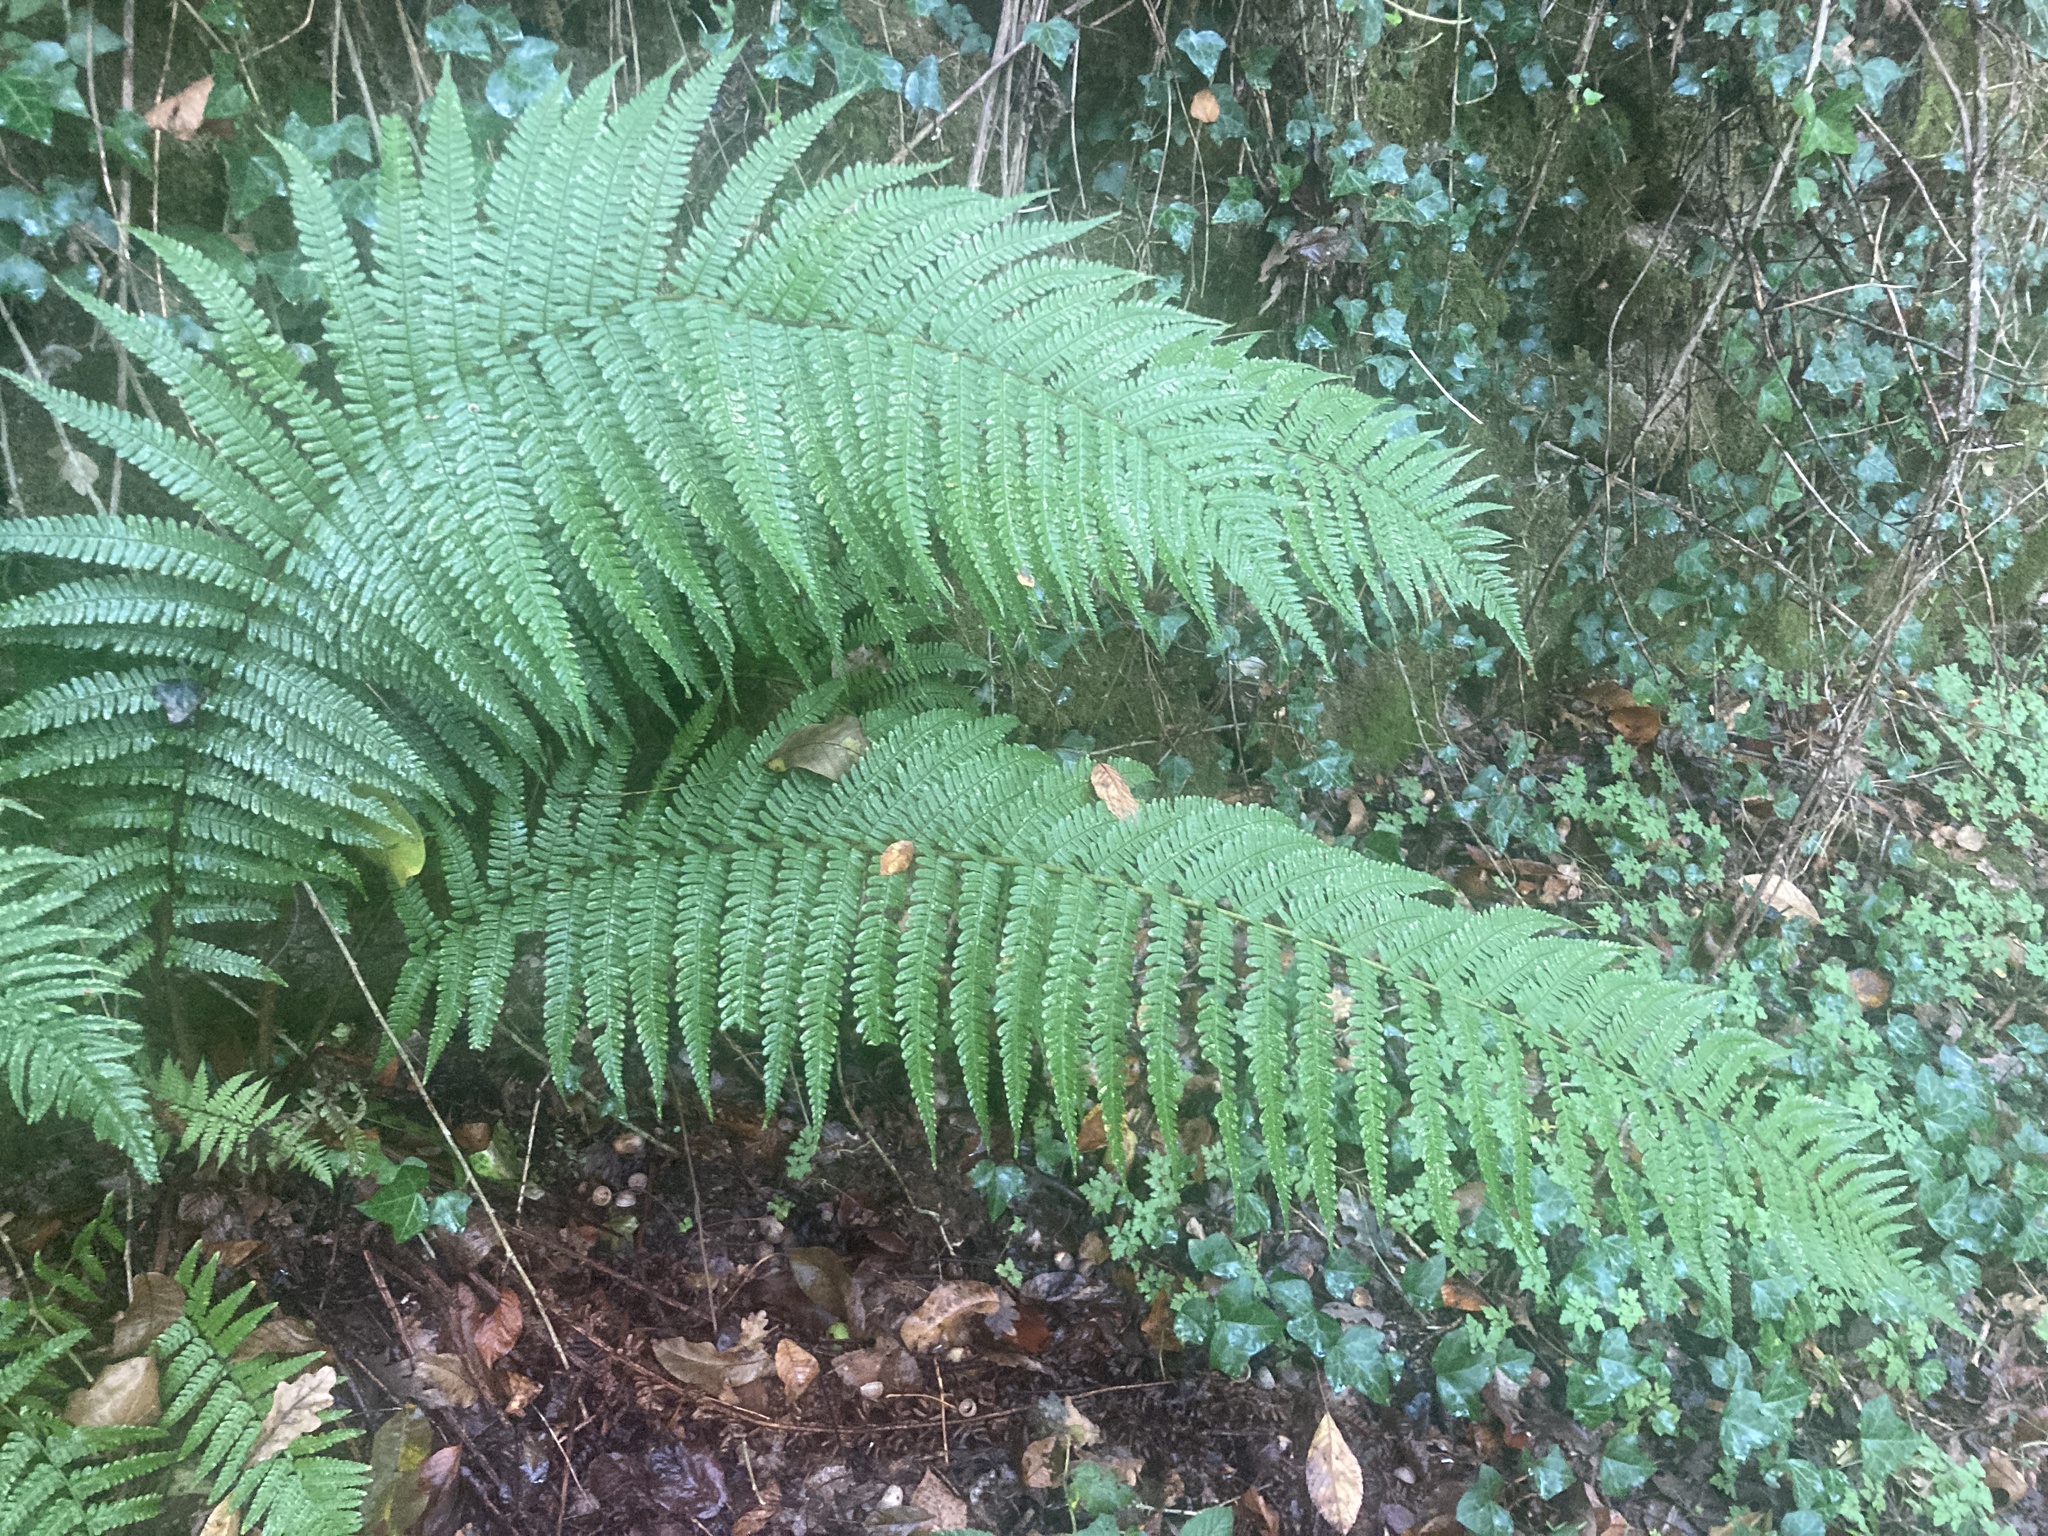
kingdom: Plantae
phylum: Tracheophyta
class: Polypodiopsida
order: Polypodiales
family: Dryopteridaceae
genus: Dryopteris
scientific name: Dryopteris affinis
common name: Scaly male fern
